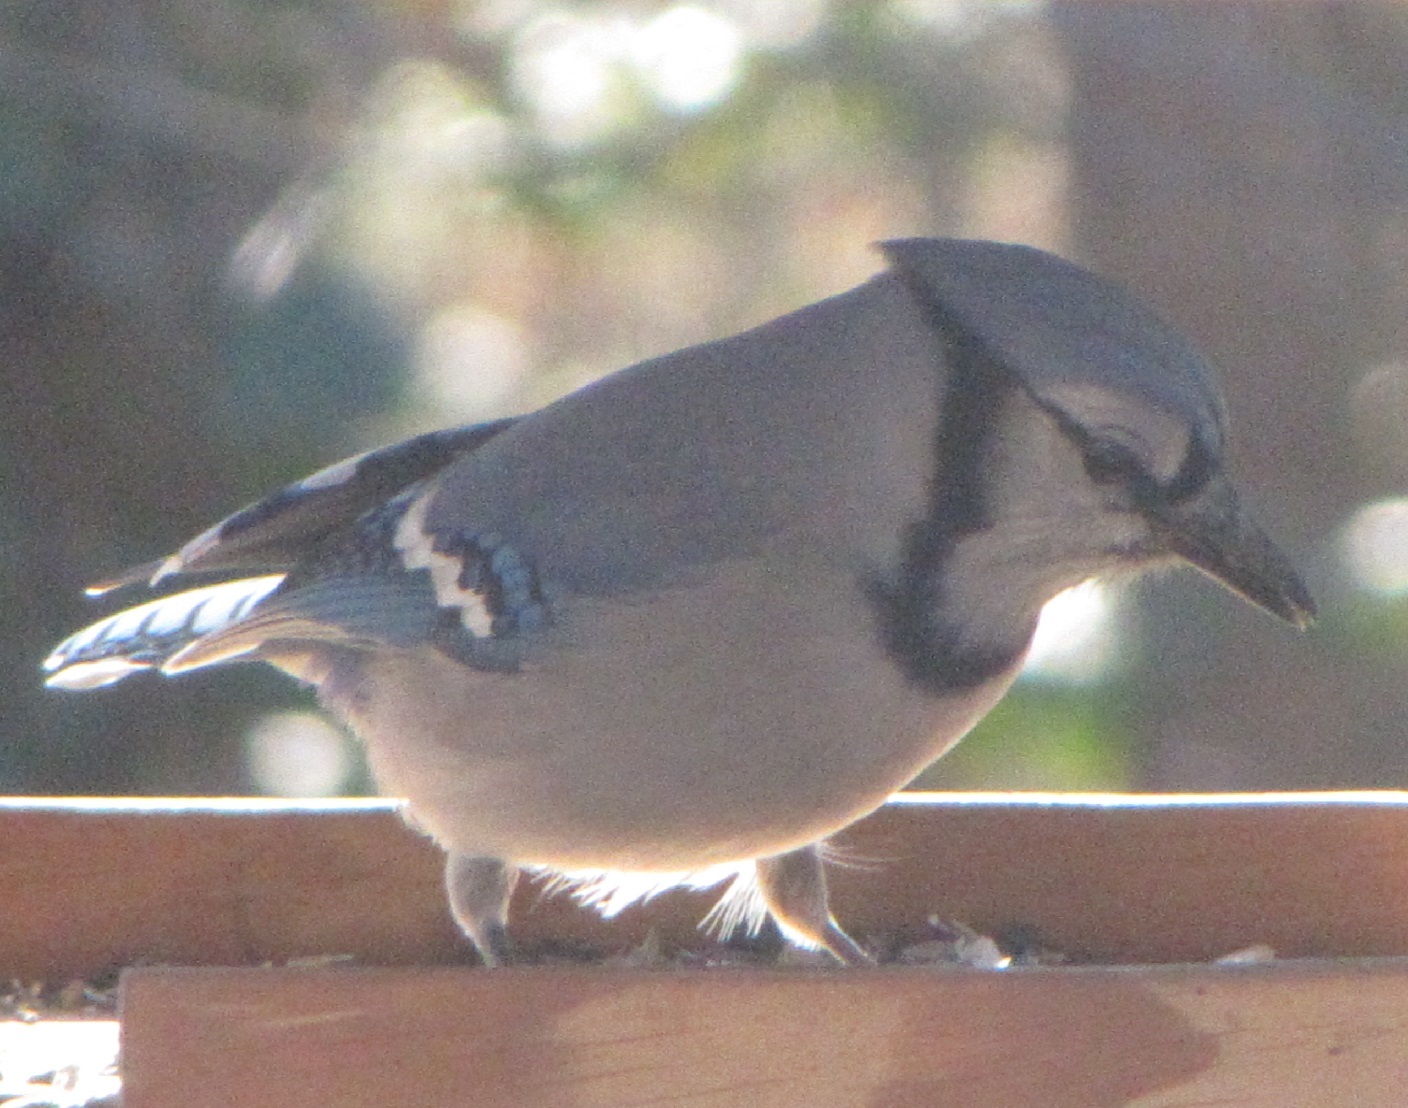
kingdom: Animalia
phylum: Chordata
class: Aves
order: Passeriformes
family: Corvidae
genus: Cyanocitta
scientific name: Cyanocitta cristata
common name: Blue jay
